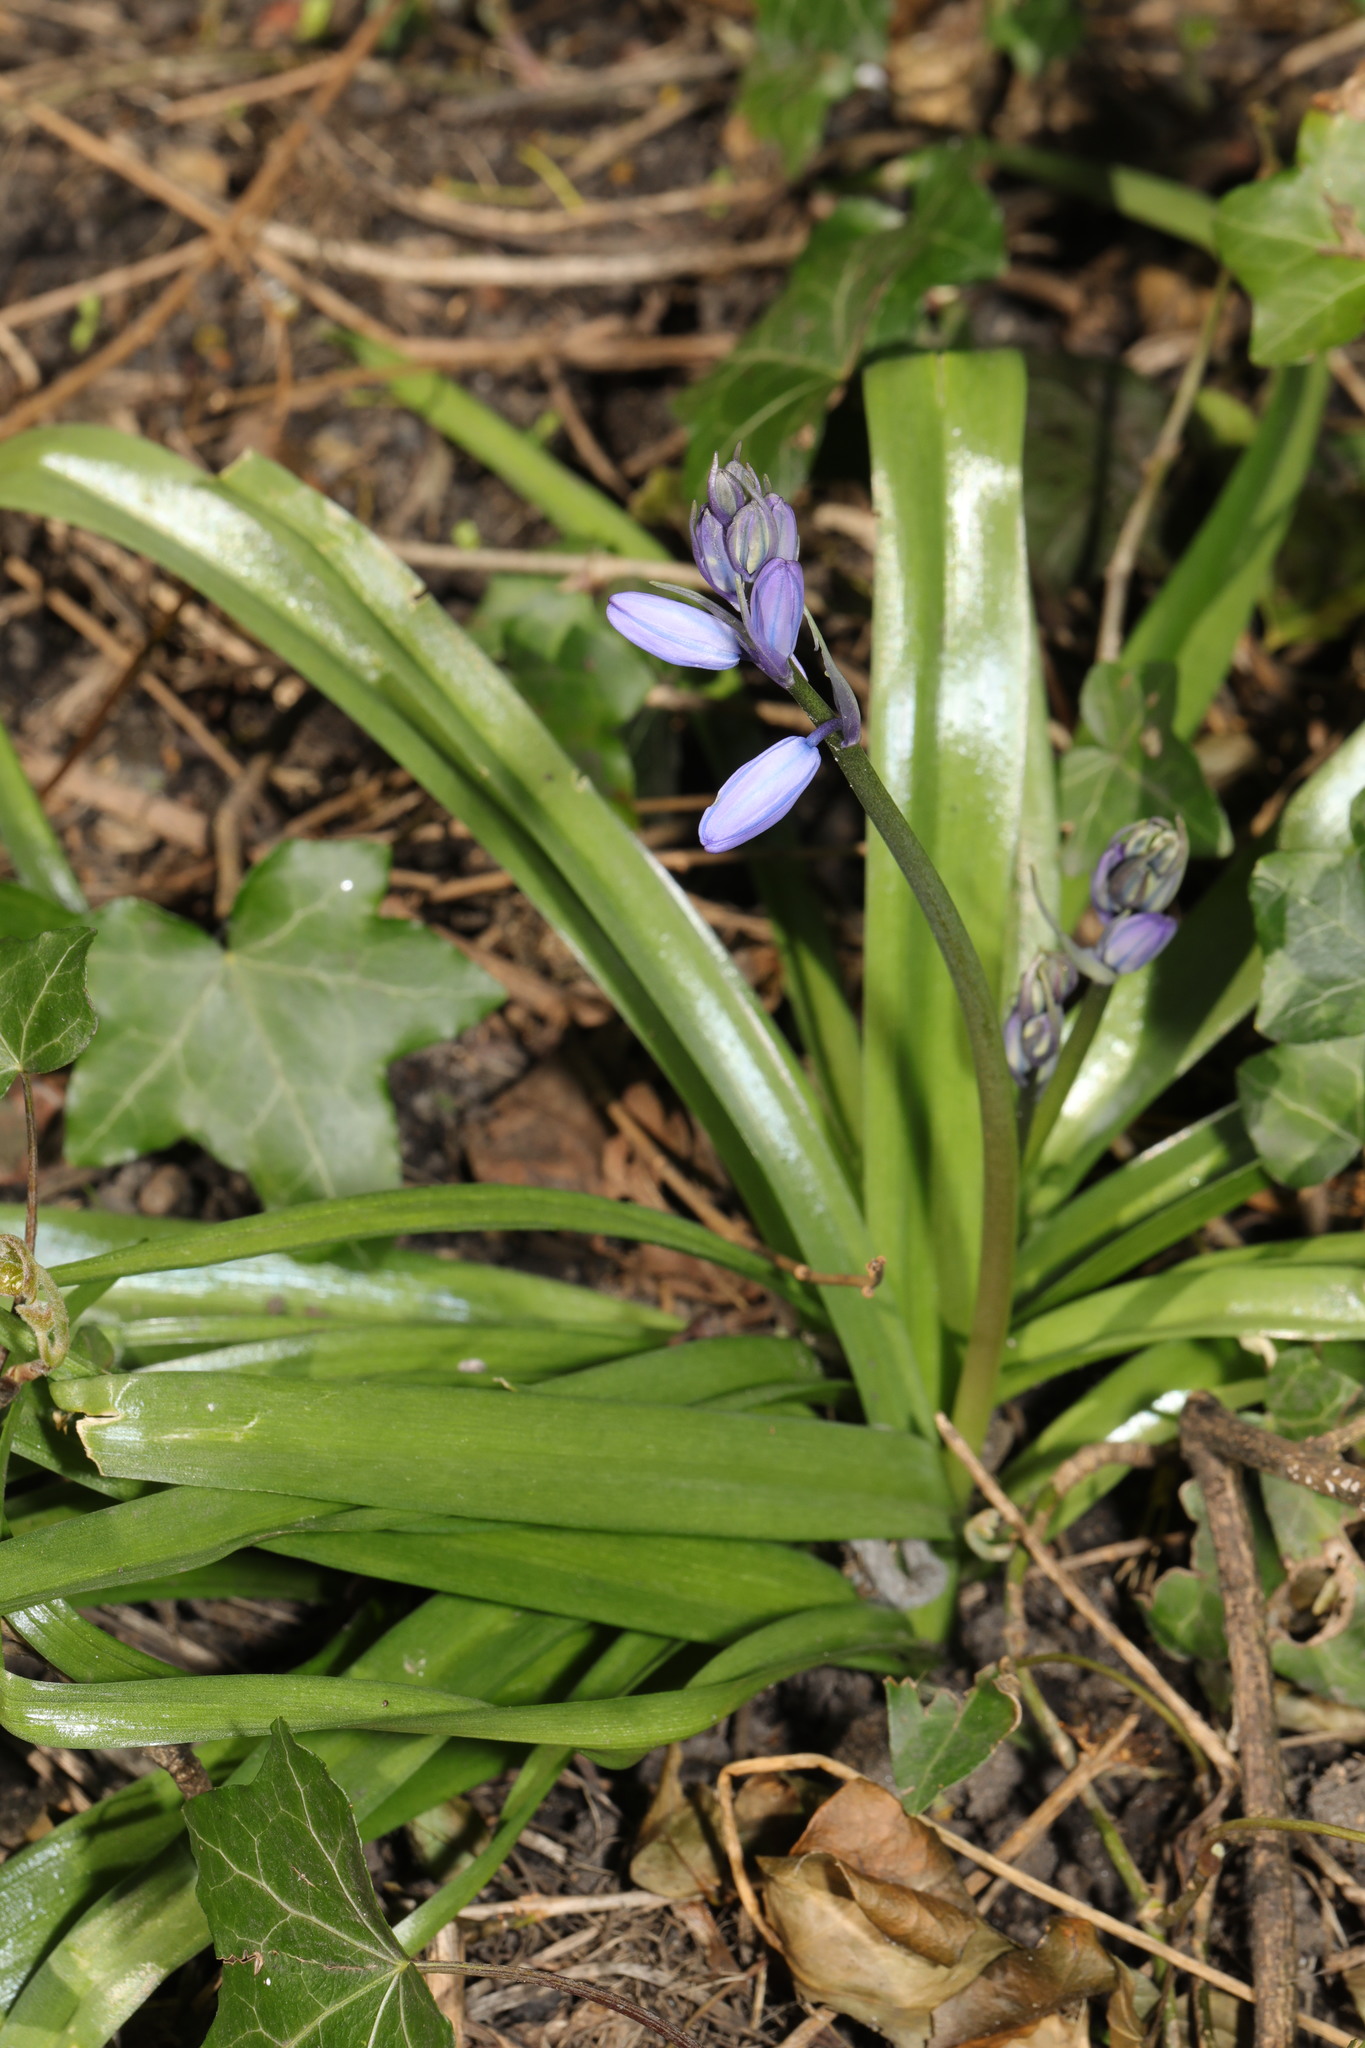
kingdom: Plantae
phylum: Tracheophyta
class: Liliopsida
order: Asparagales
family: Asparagaceae
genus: Hyacinthoides
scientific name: Hyacinthoides massartiana
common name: Hyacinthoides
